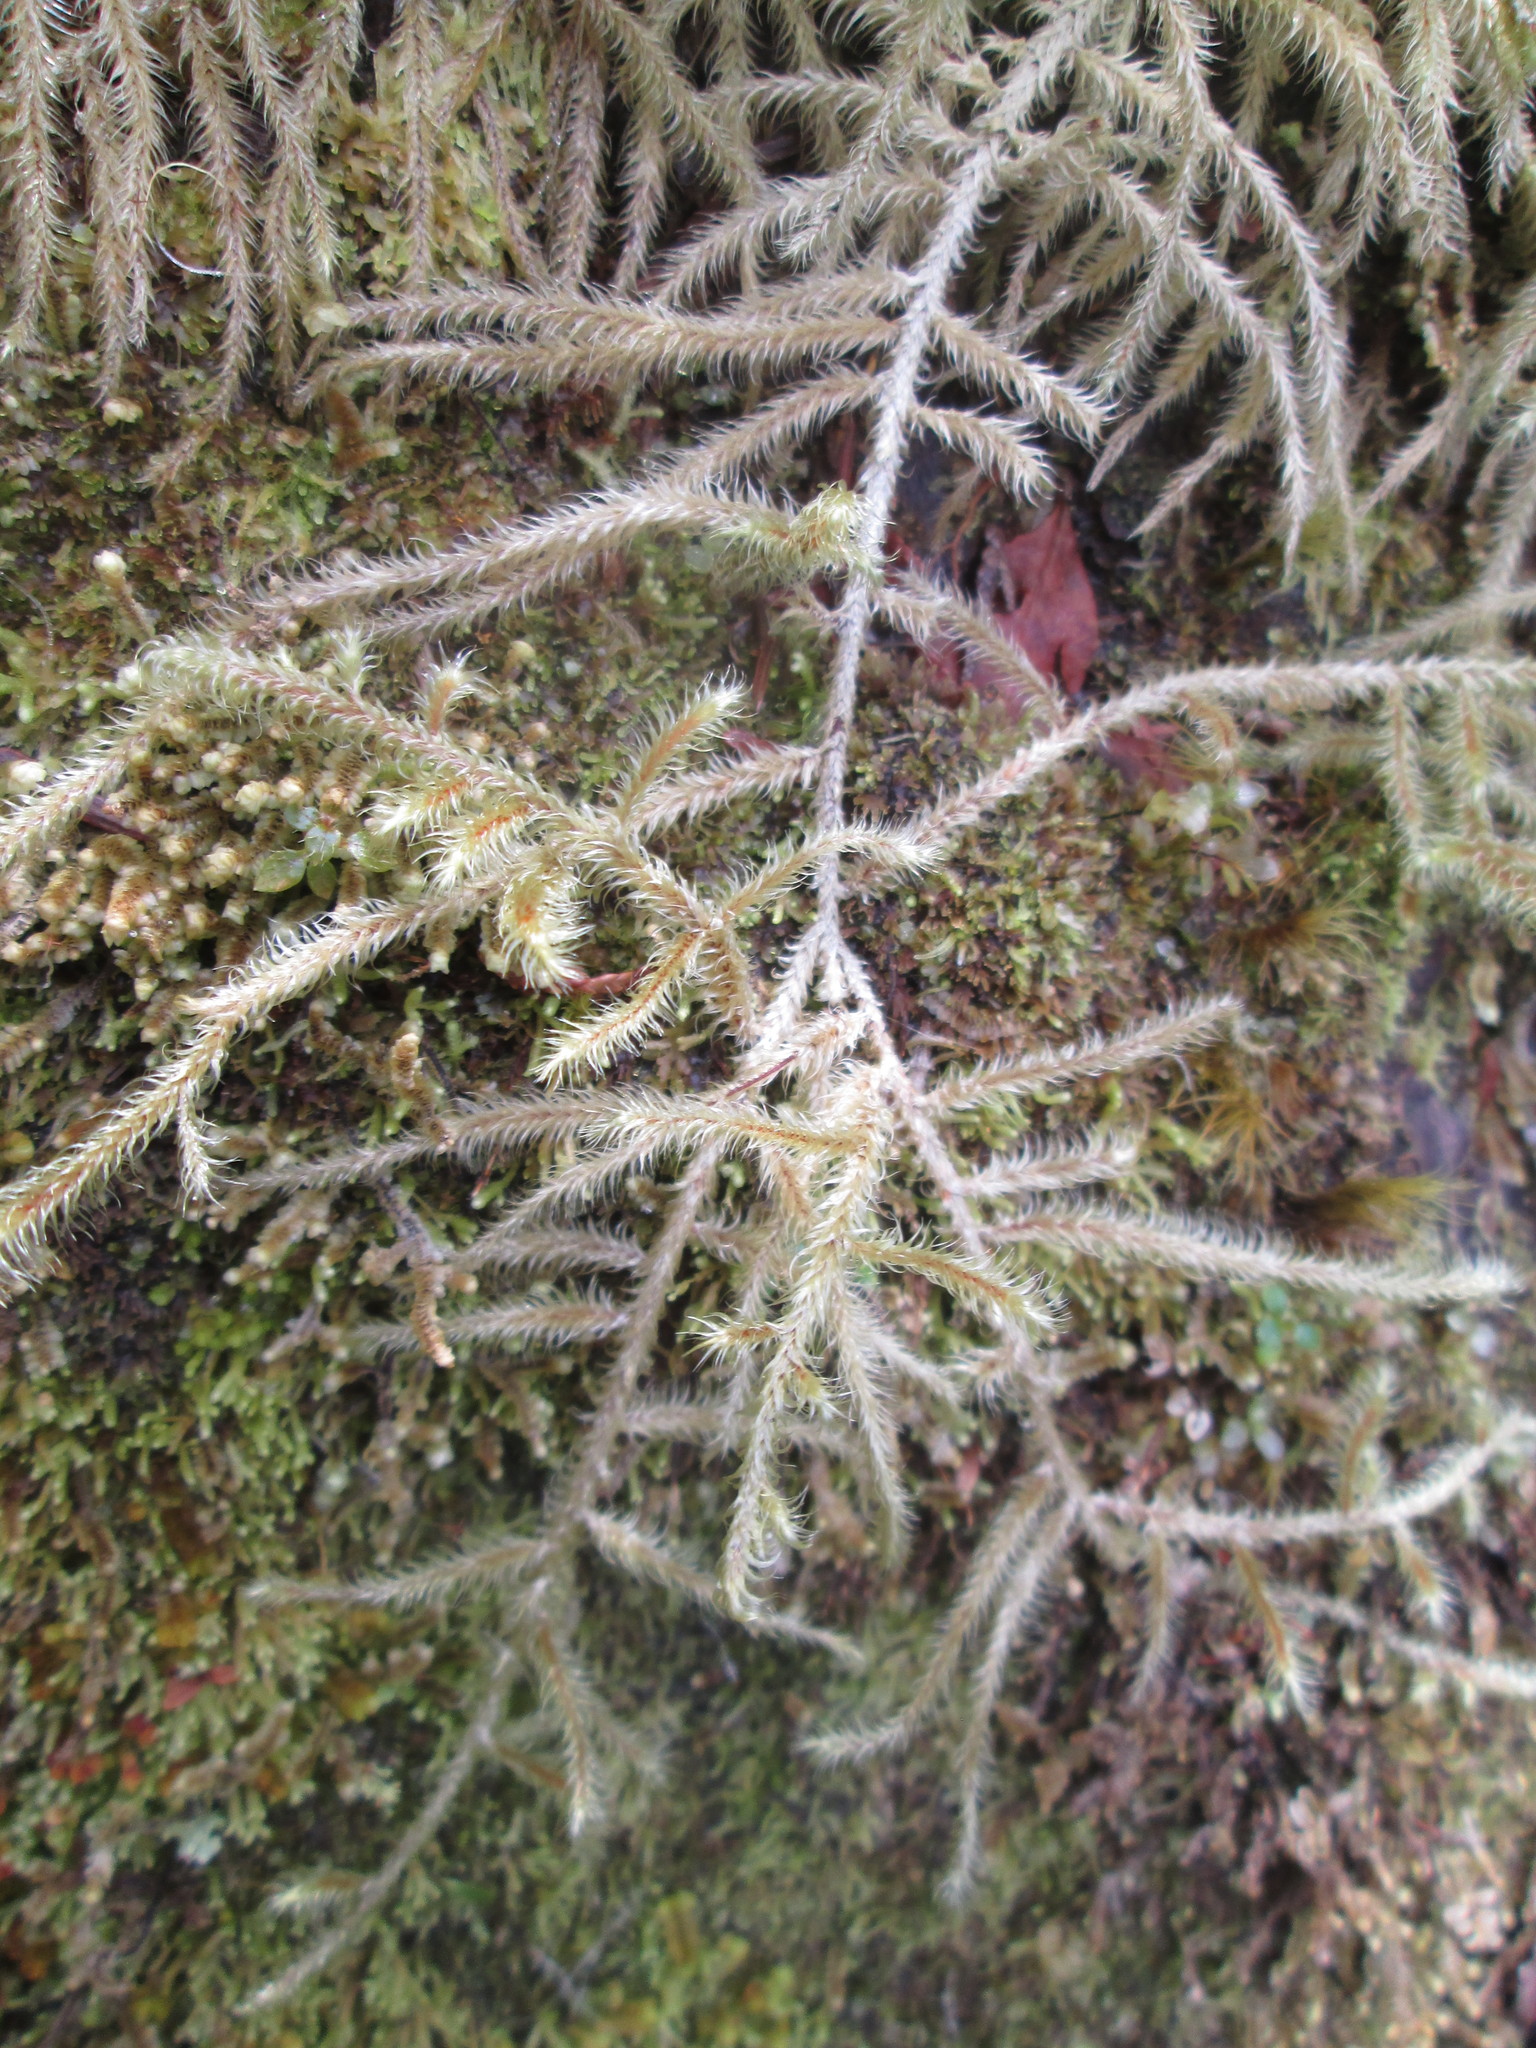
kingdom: Plantae
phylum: Bryophyta
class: Bryopsida
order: Hypnales
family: Hylocomiaceae
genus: Rhytidiadelphus
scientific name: Rhytidiadelphus loreus
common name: Lanky moss
